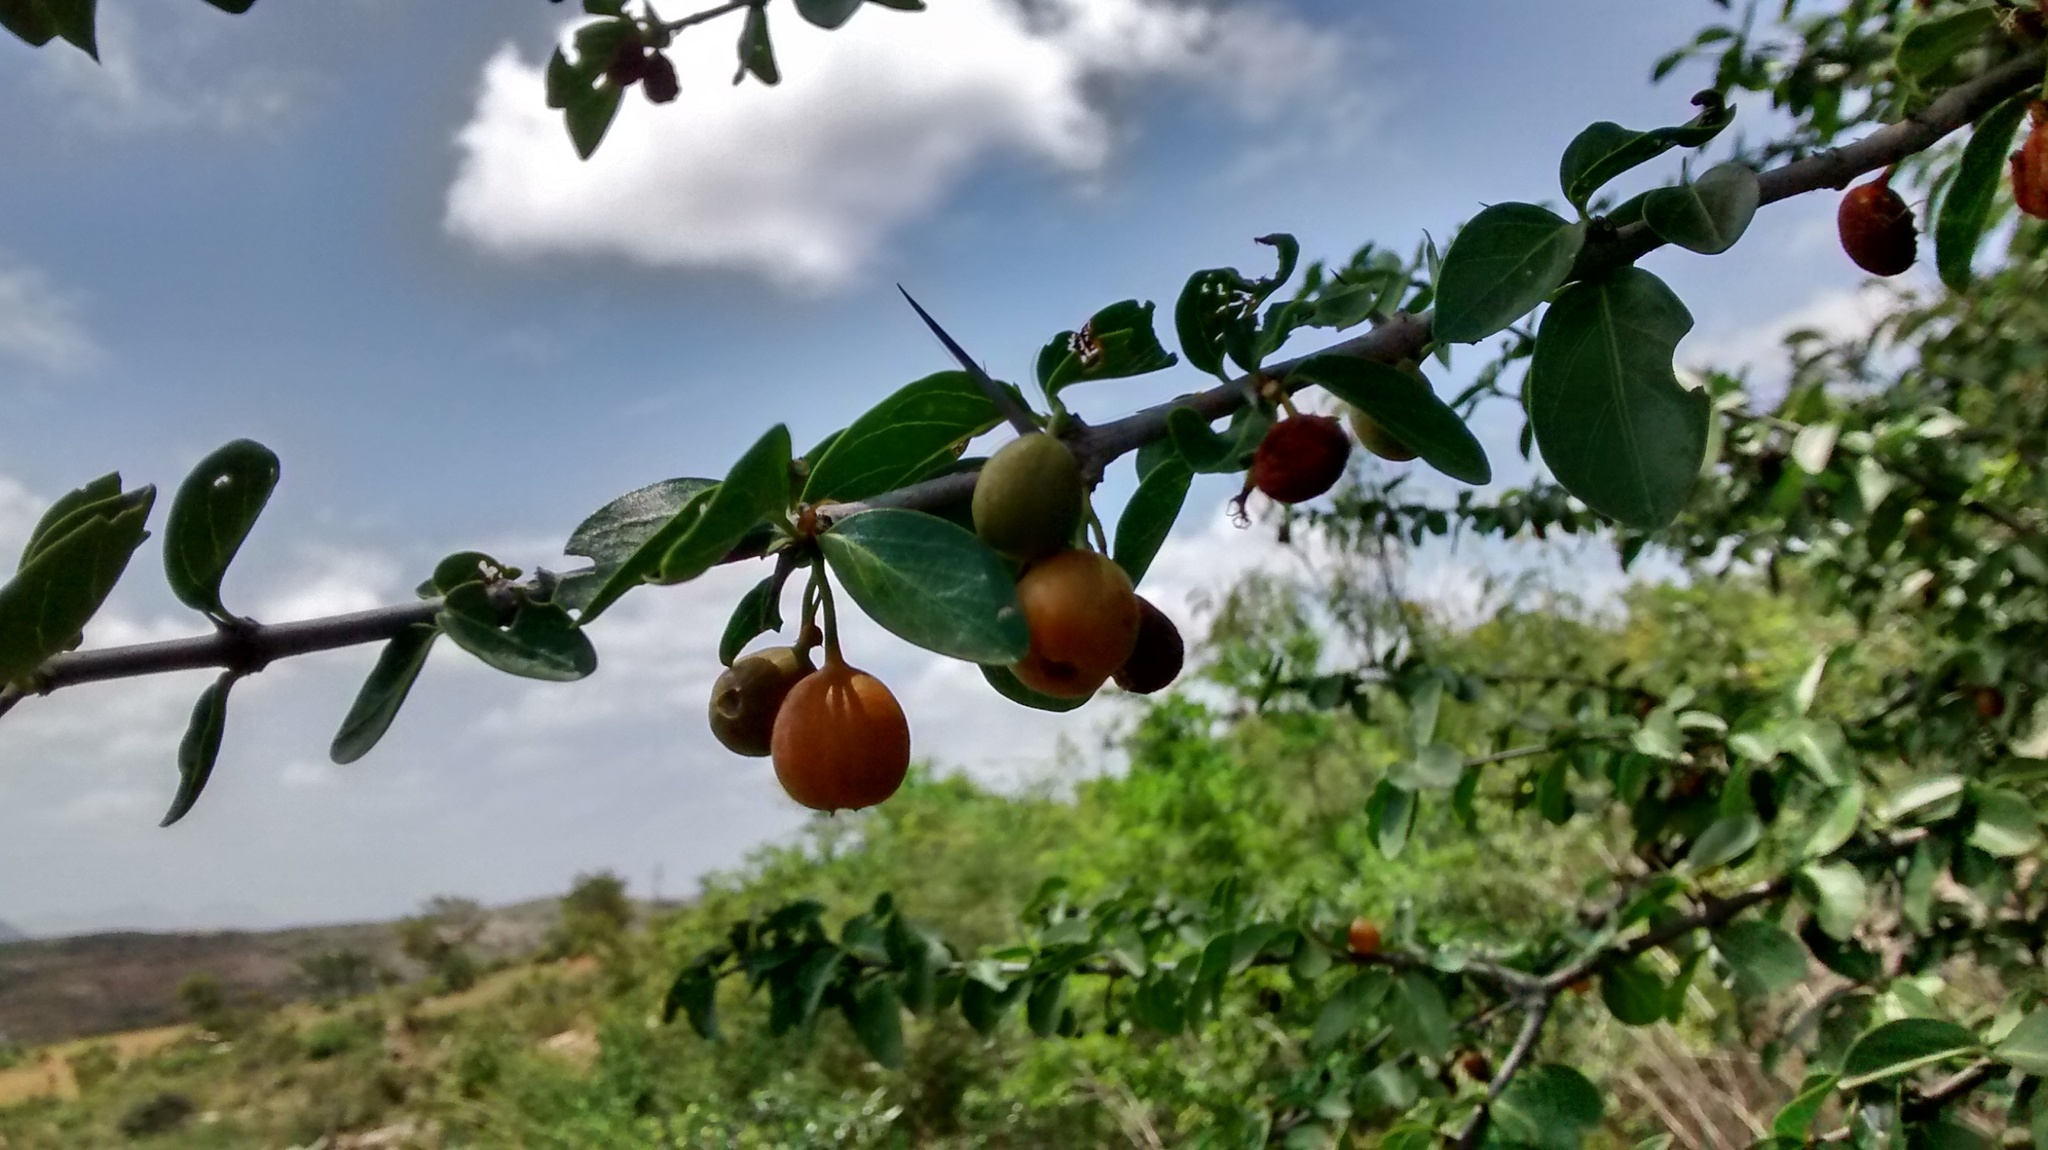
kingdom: Plantae
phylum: Tracheophyta
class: Magnoliopsida
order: Gentianales
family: Rubiaceae
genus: Canthium
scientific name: Canthium coromandelicum
